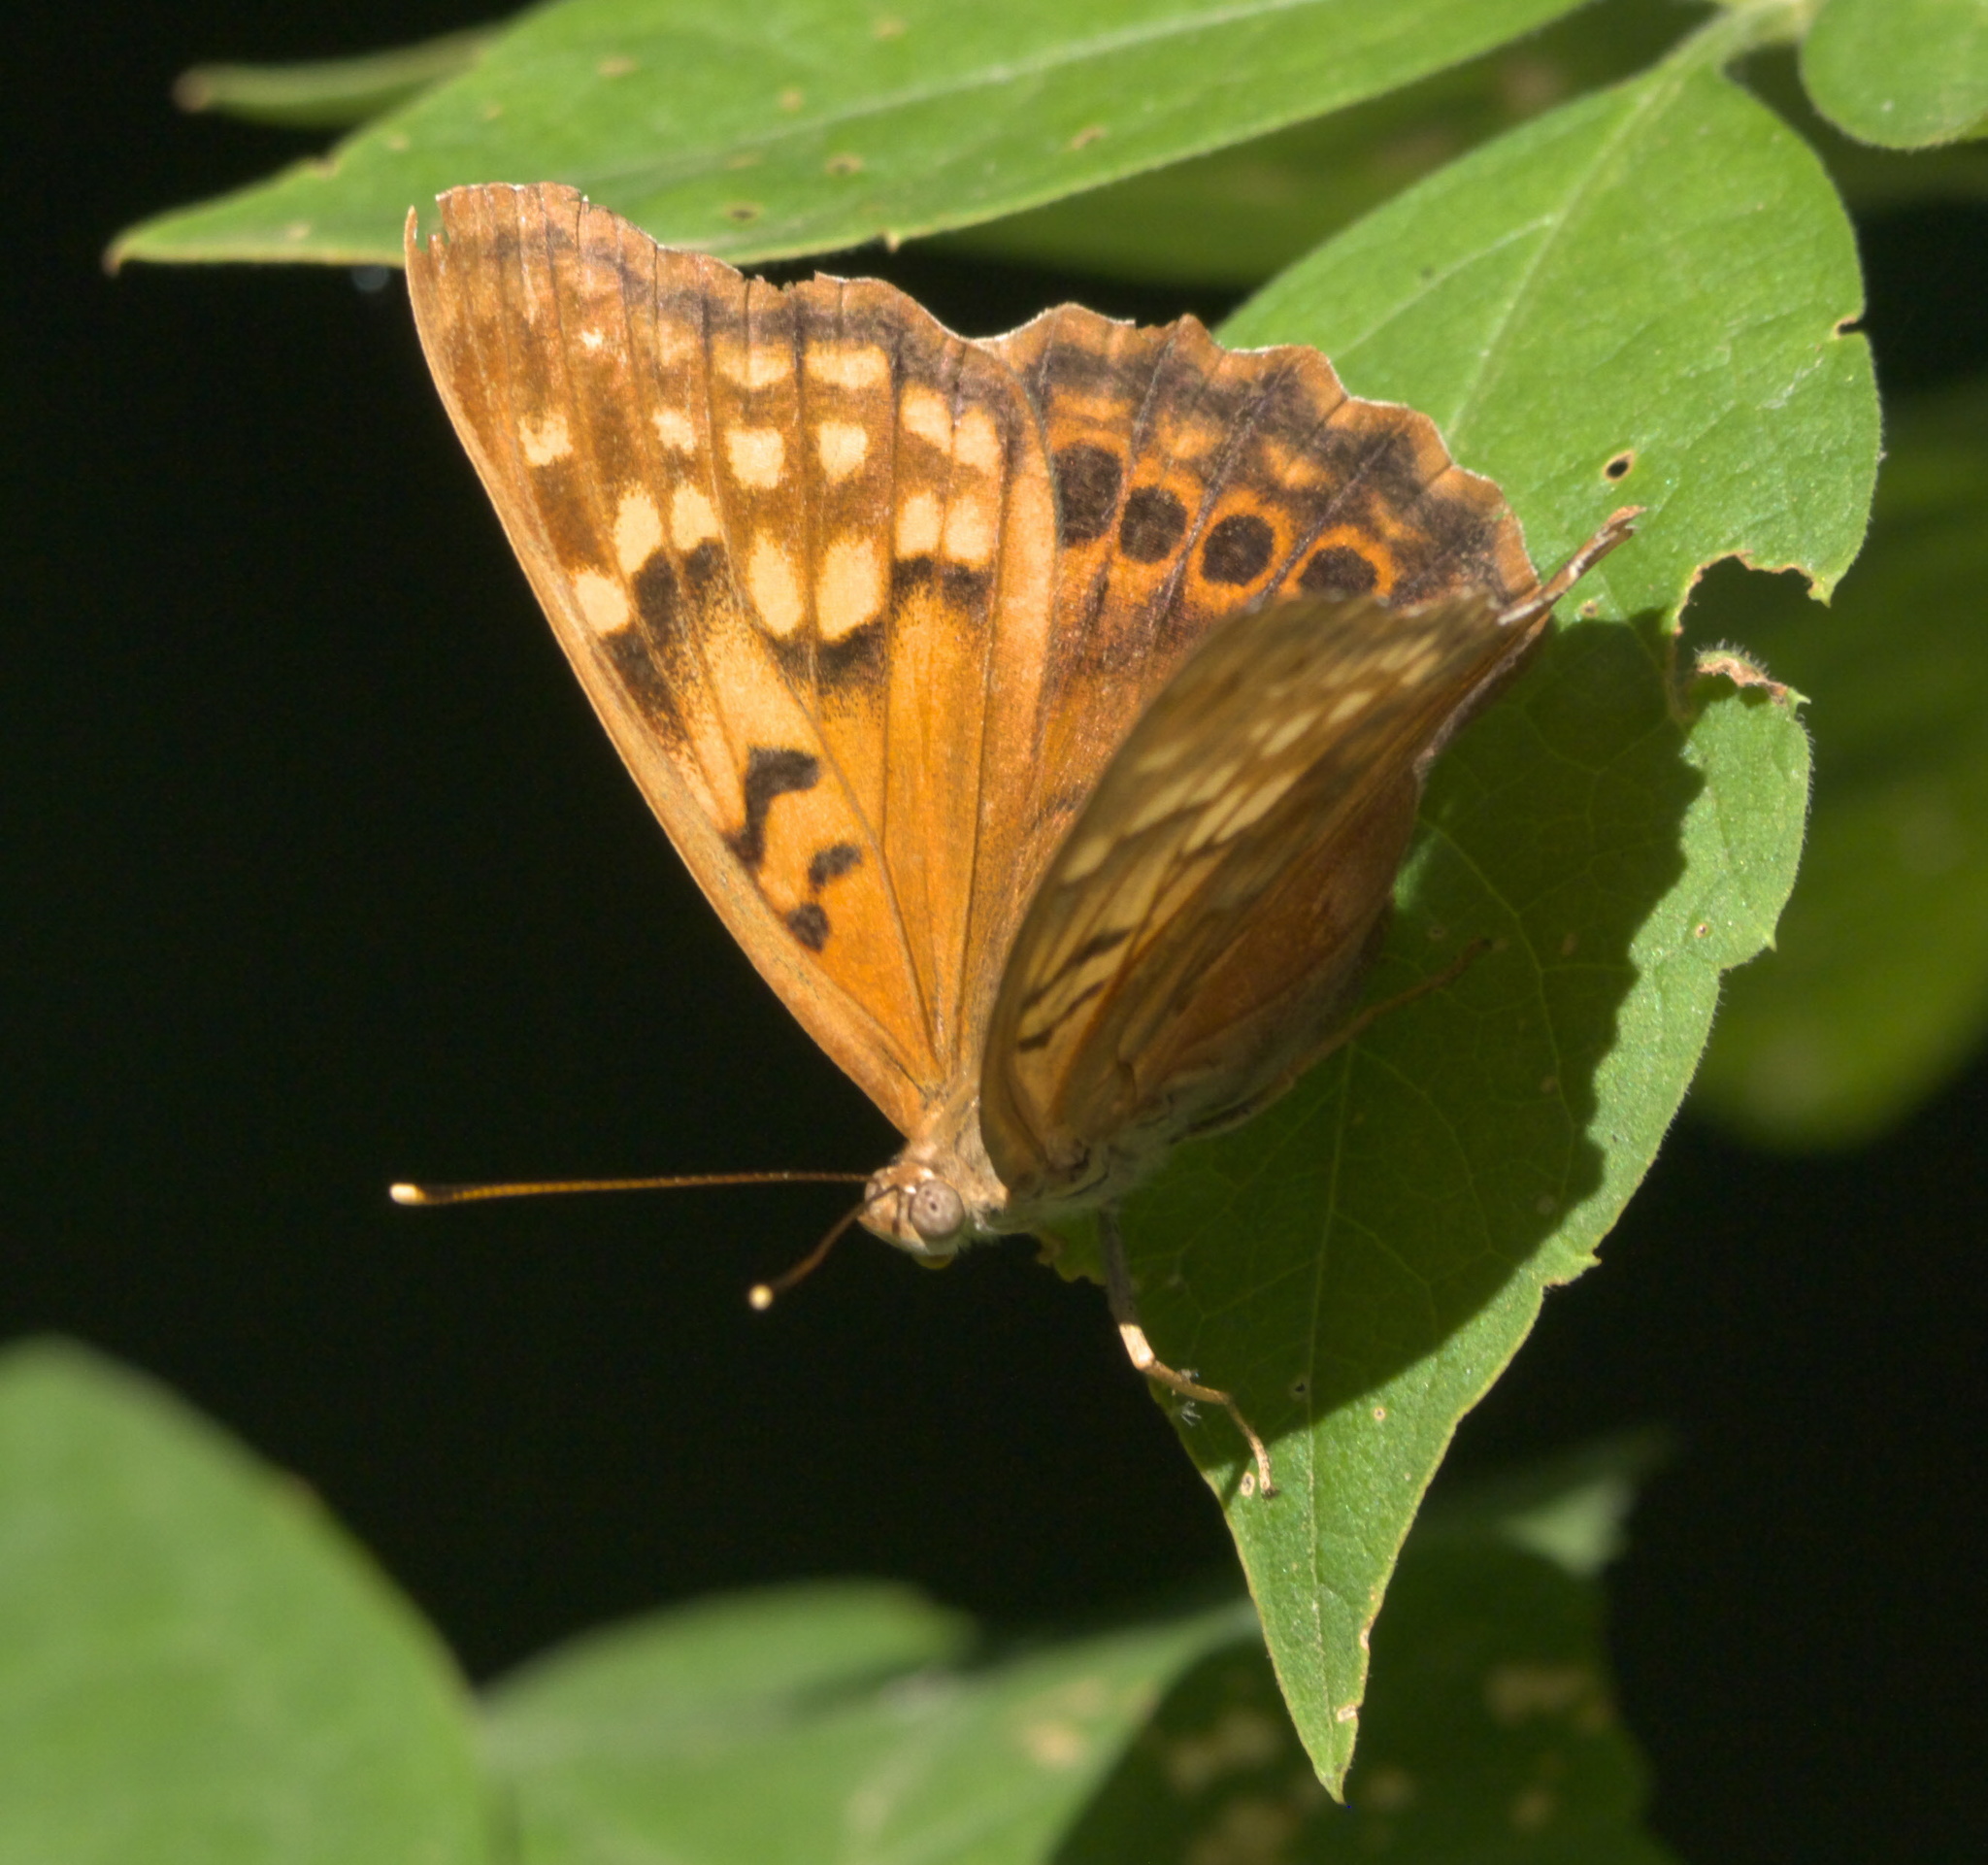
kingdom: Animalia
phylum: Arthropoda
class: Insecta
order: Lepidoptera
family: Nymphalidae
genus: Asterocampa
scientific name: Asterocampa clyton
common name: Tawny emperor
